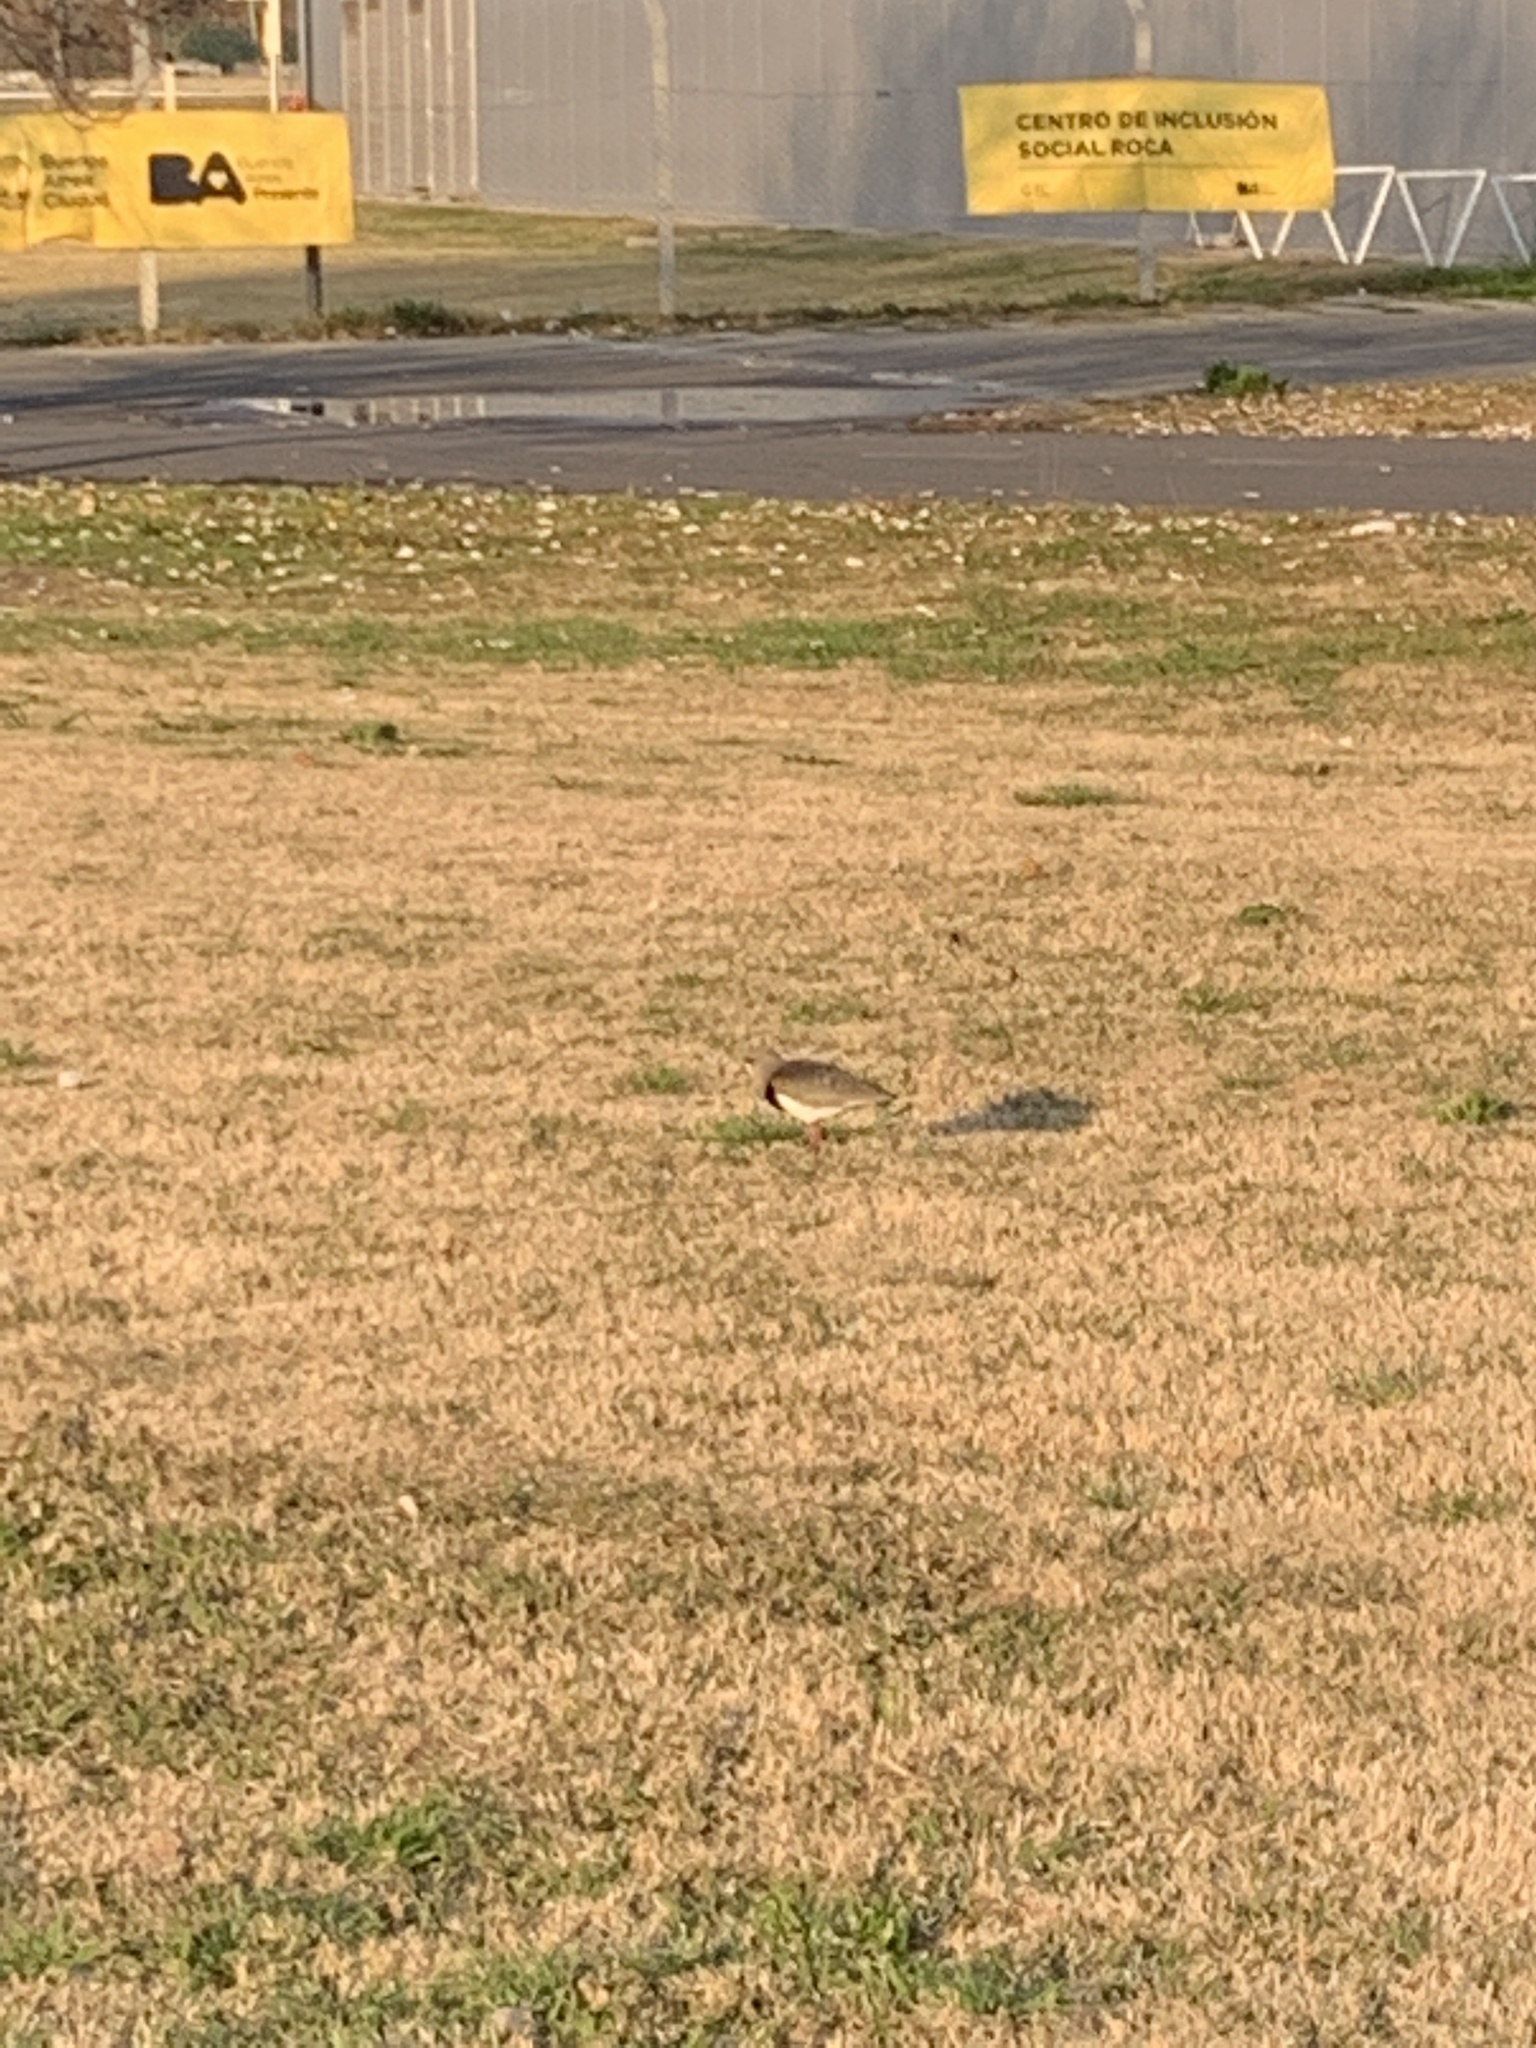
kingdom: Animalia
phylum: Chordata
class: Aves
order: Charadriiformes
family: Charadriidae
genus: Vanellus
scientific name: Vanellus chilensis
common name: Southern lapwing
